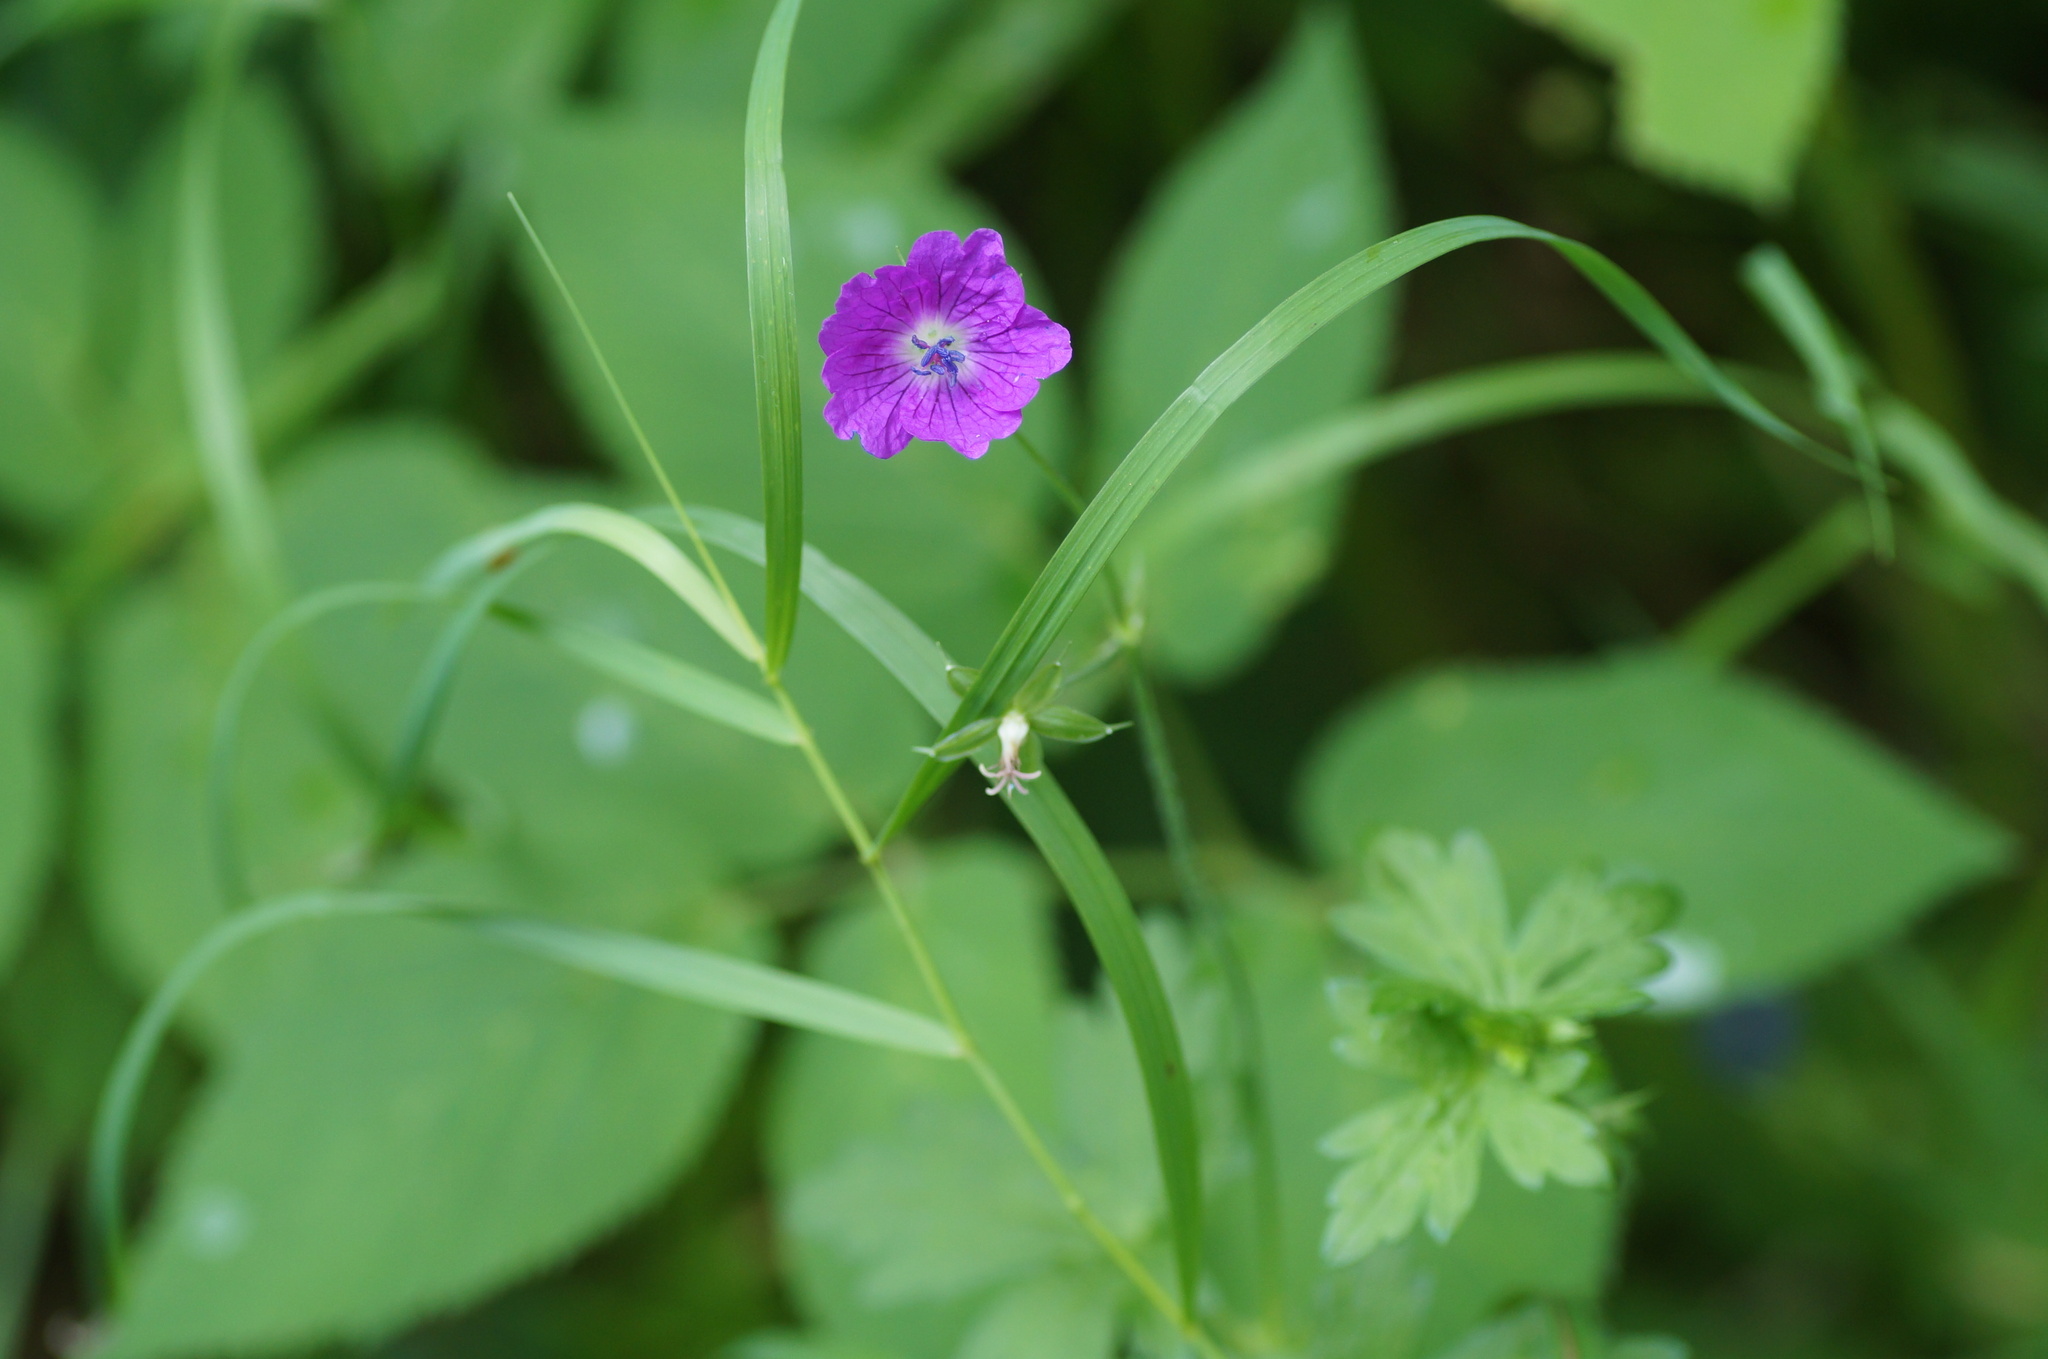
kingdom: Plantae
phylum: Tracheophyta
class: Magnoliopsida
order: Geraniales
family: Geraniaceae
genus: Geranium
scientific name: Geranium palustre
